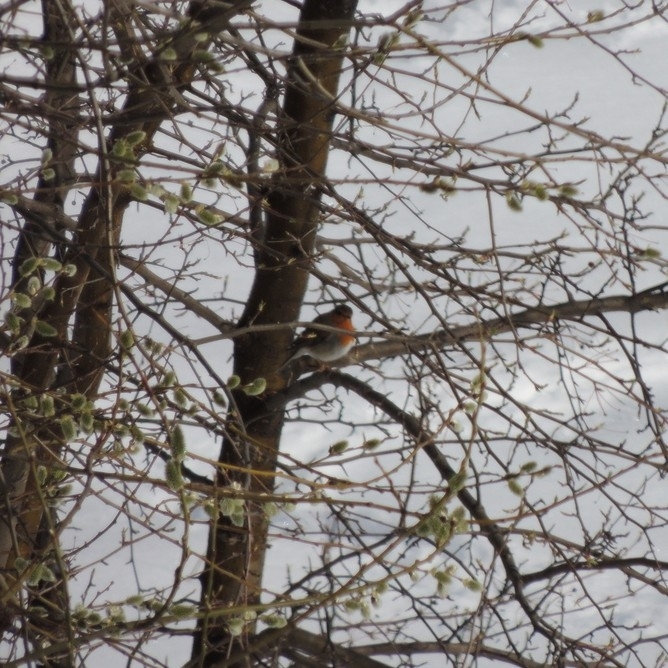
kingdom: Animalia
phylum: Chordata
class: Aves
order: Passeriformes
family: Muscicapidae
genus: Erithacus
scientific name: Erithacus rubecula
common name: European robin
